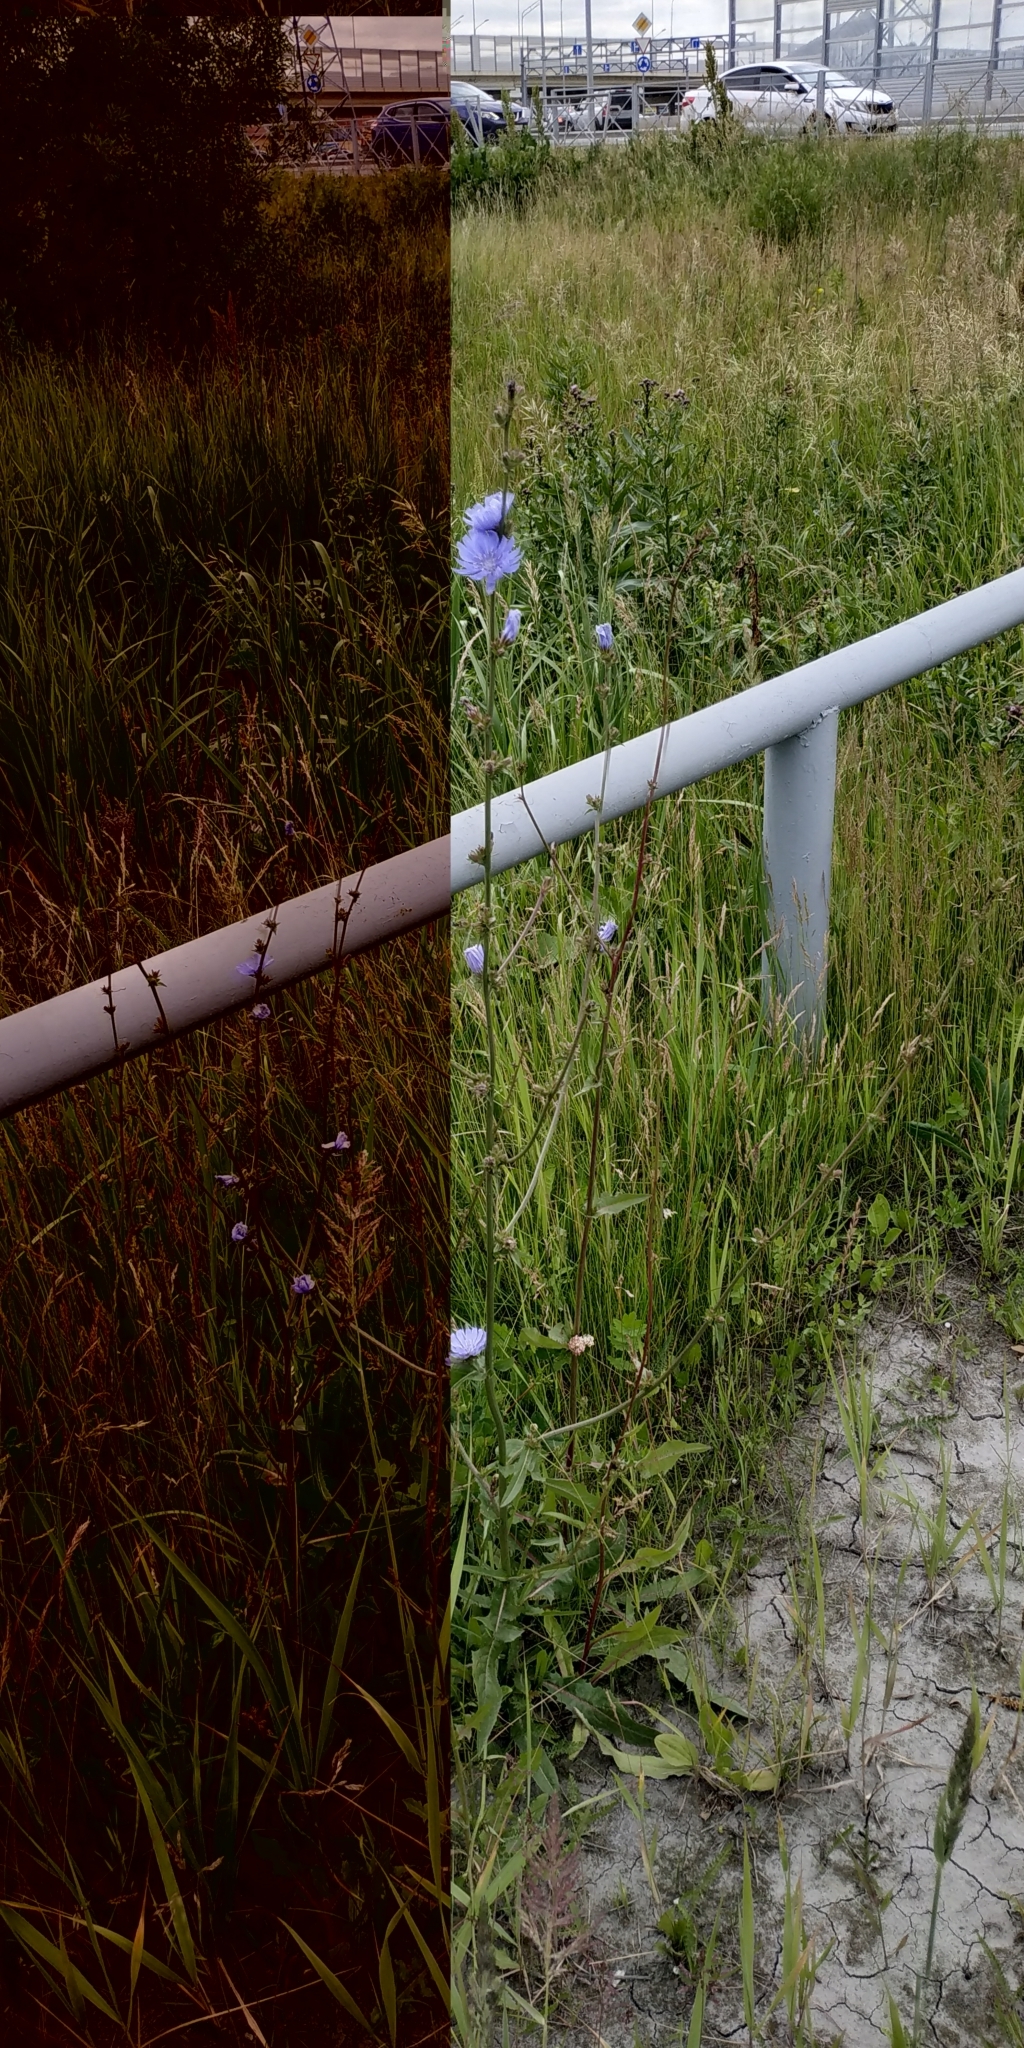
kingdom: Plantae
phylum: Tracheophyta
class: Magnoliopsida
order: Asterales
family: Asteraceae
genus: Cichorium
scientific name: Cichorium intybus
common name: Chicory
